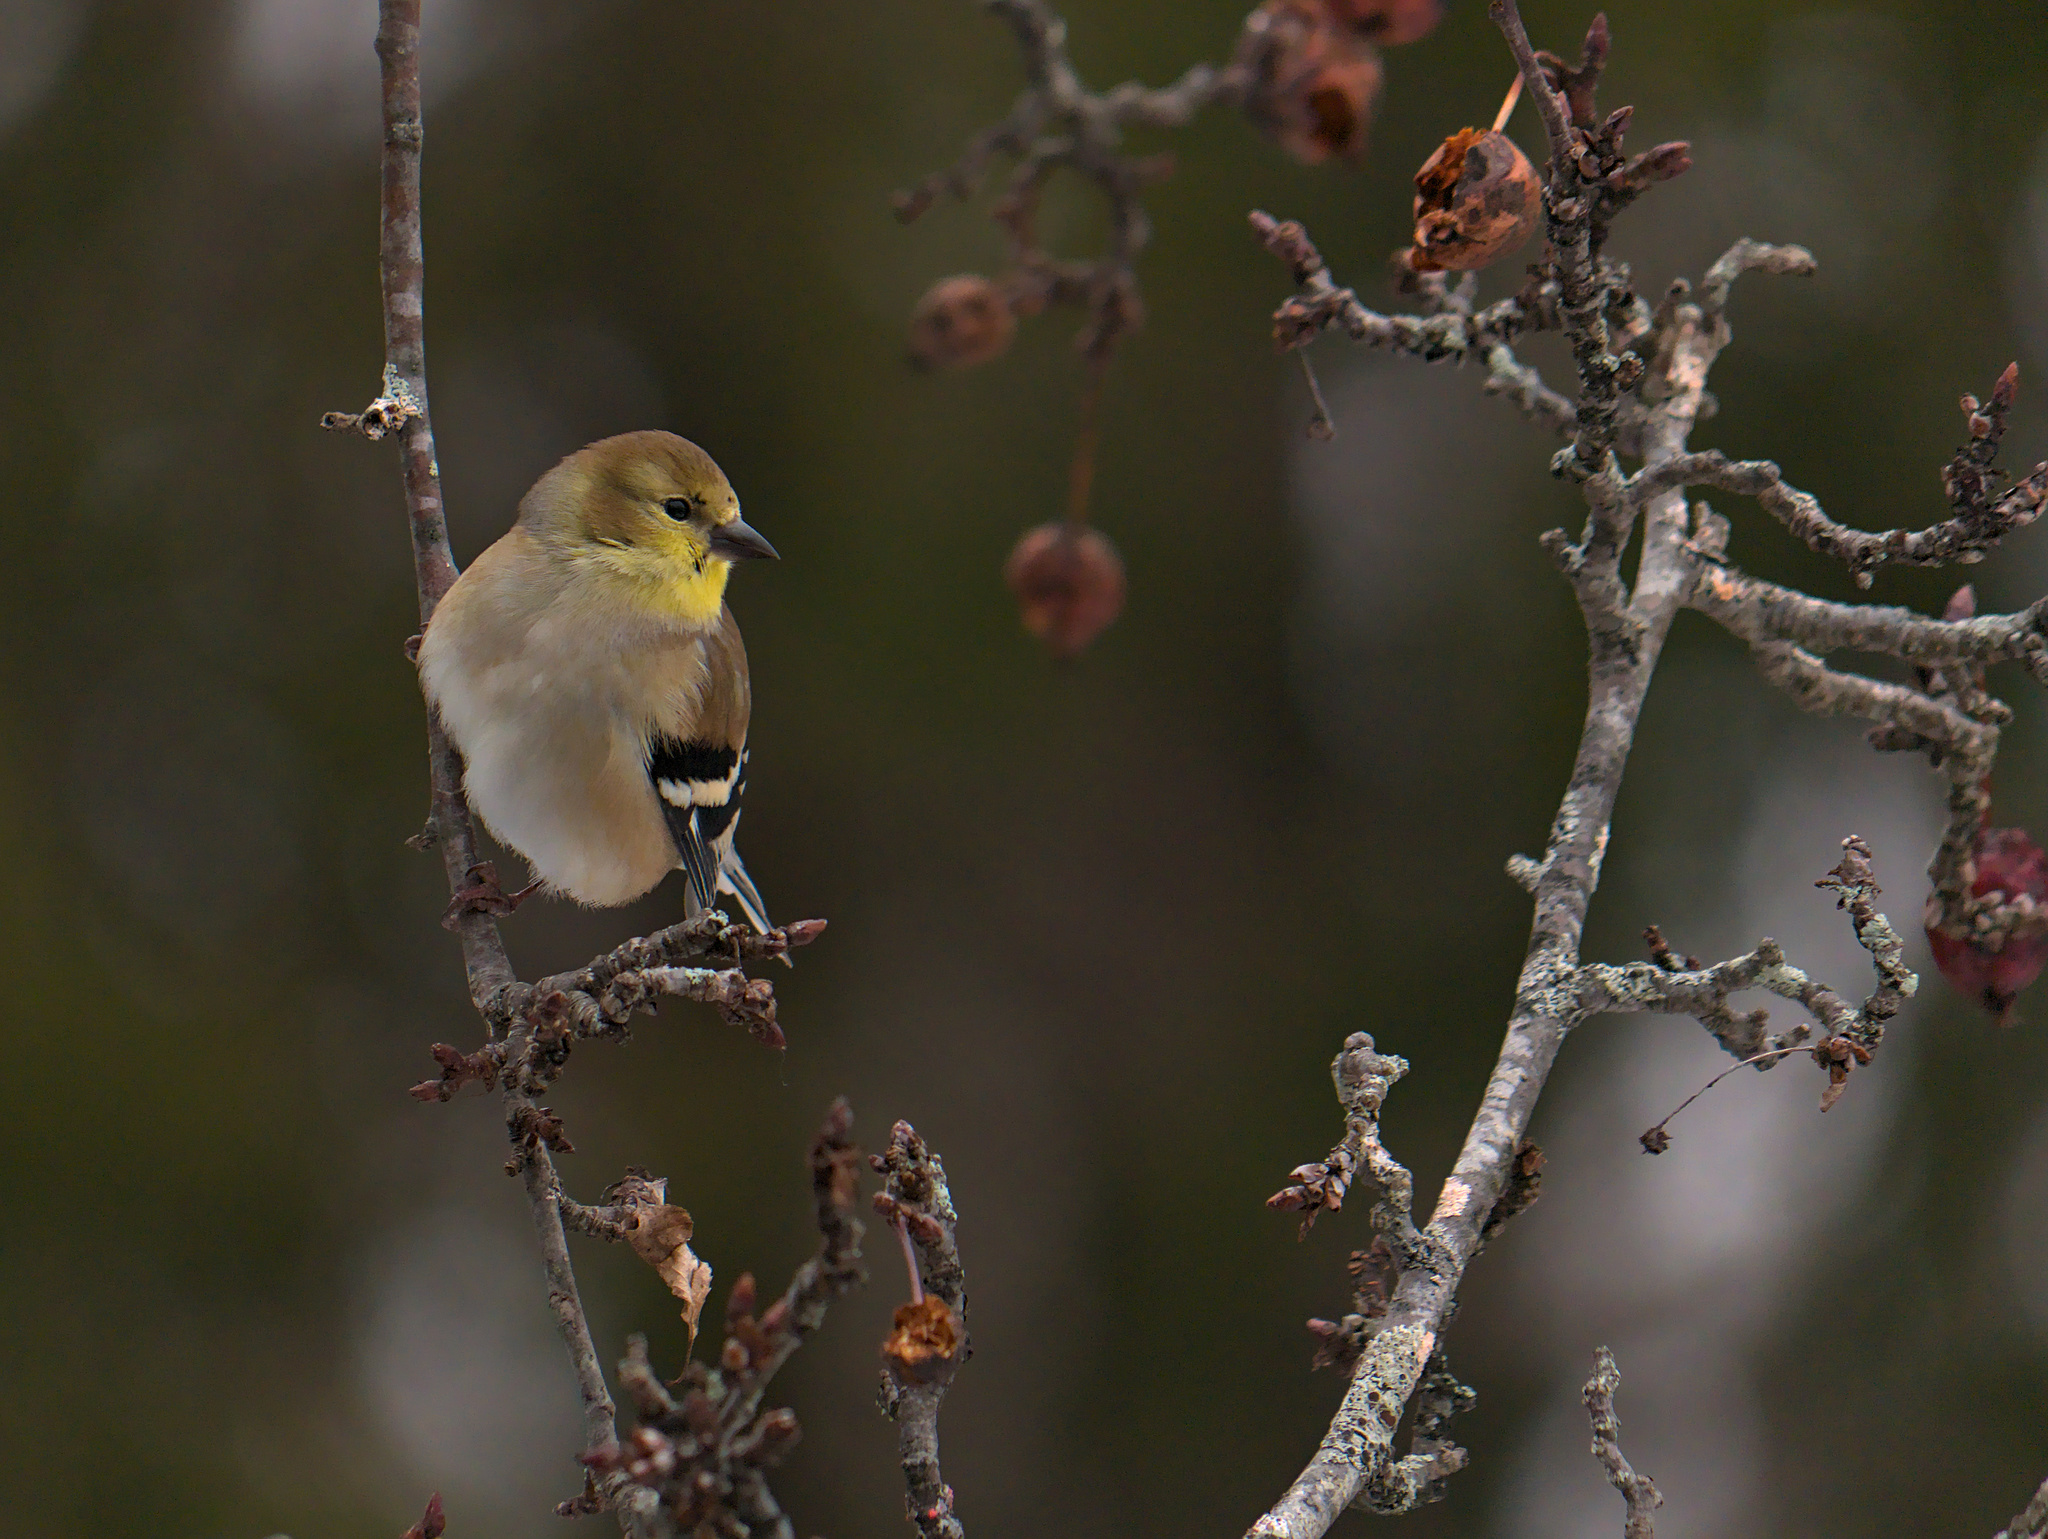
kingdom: Animalia
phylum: Chordata
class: Aves
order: Passeriformes
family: Fringillidae
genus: Spinus
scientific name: Spinus tristis
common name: American goldfinch
